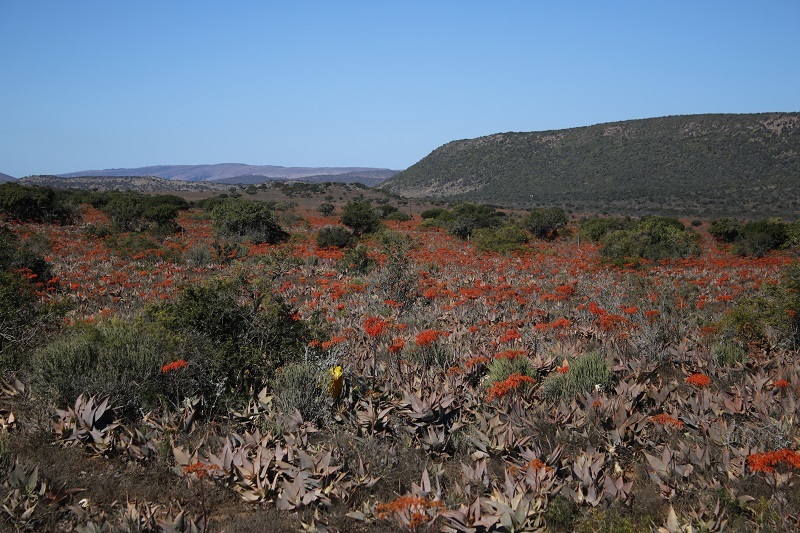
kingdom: Plantae
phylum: Tracheophyta
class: Liliopsida
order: Asparagales
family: Asphodelaceae
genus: Aloe
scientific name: Aloe striata
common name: Coral aloe
